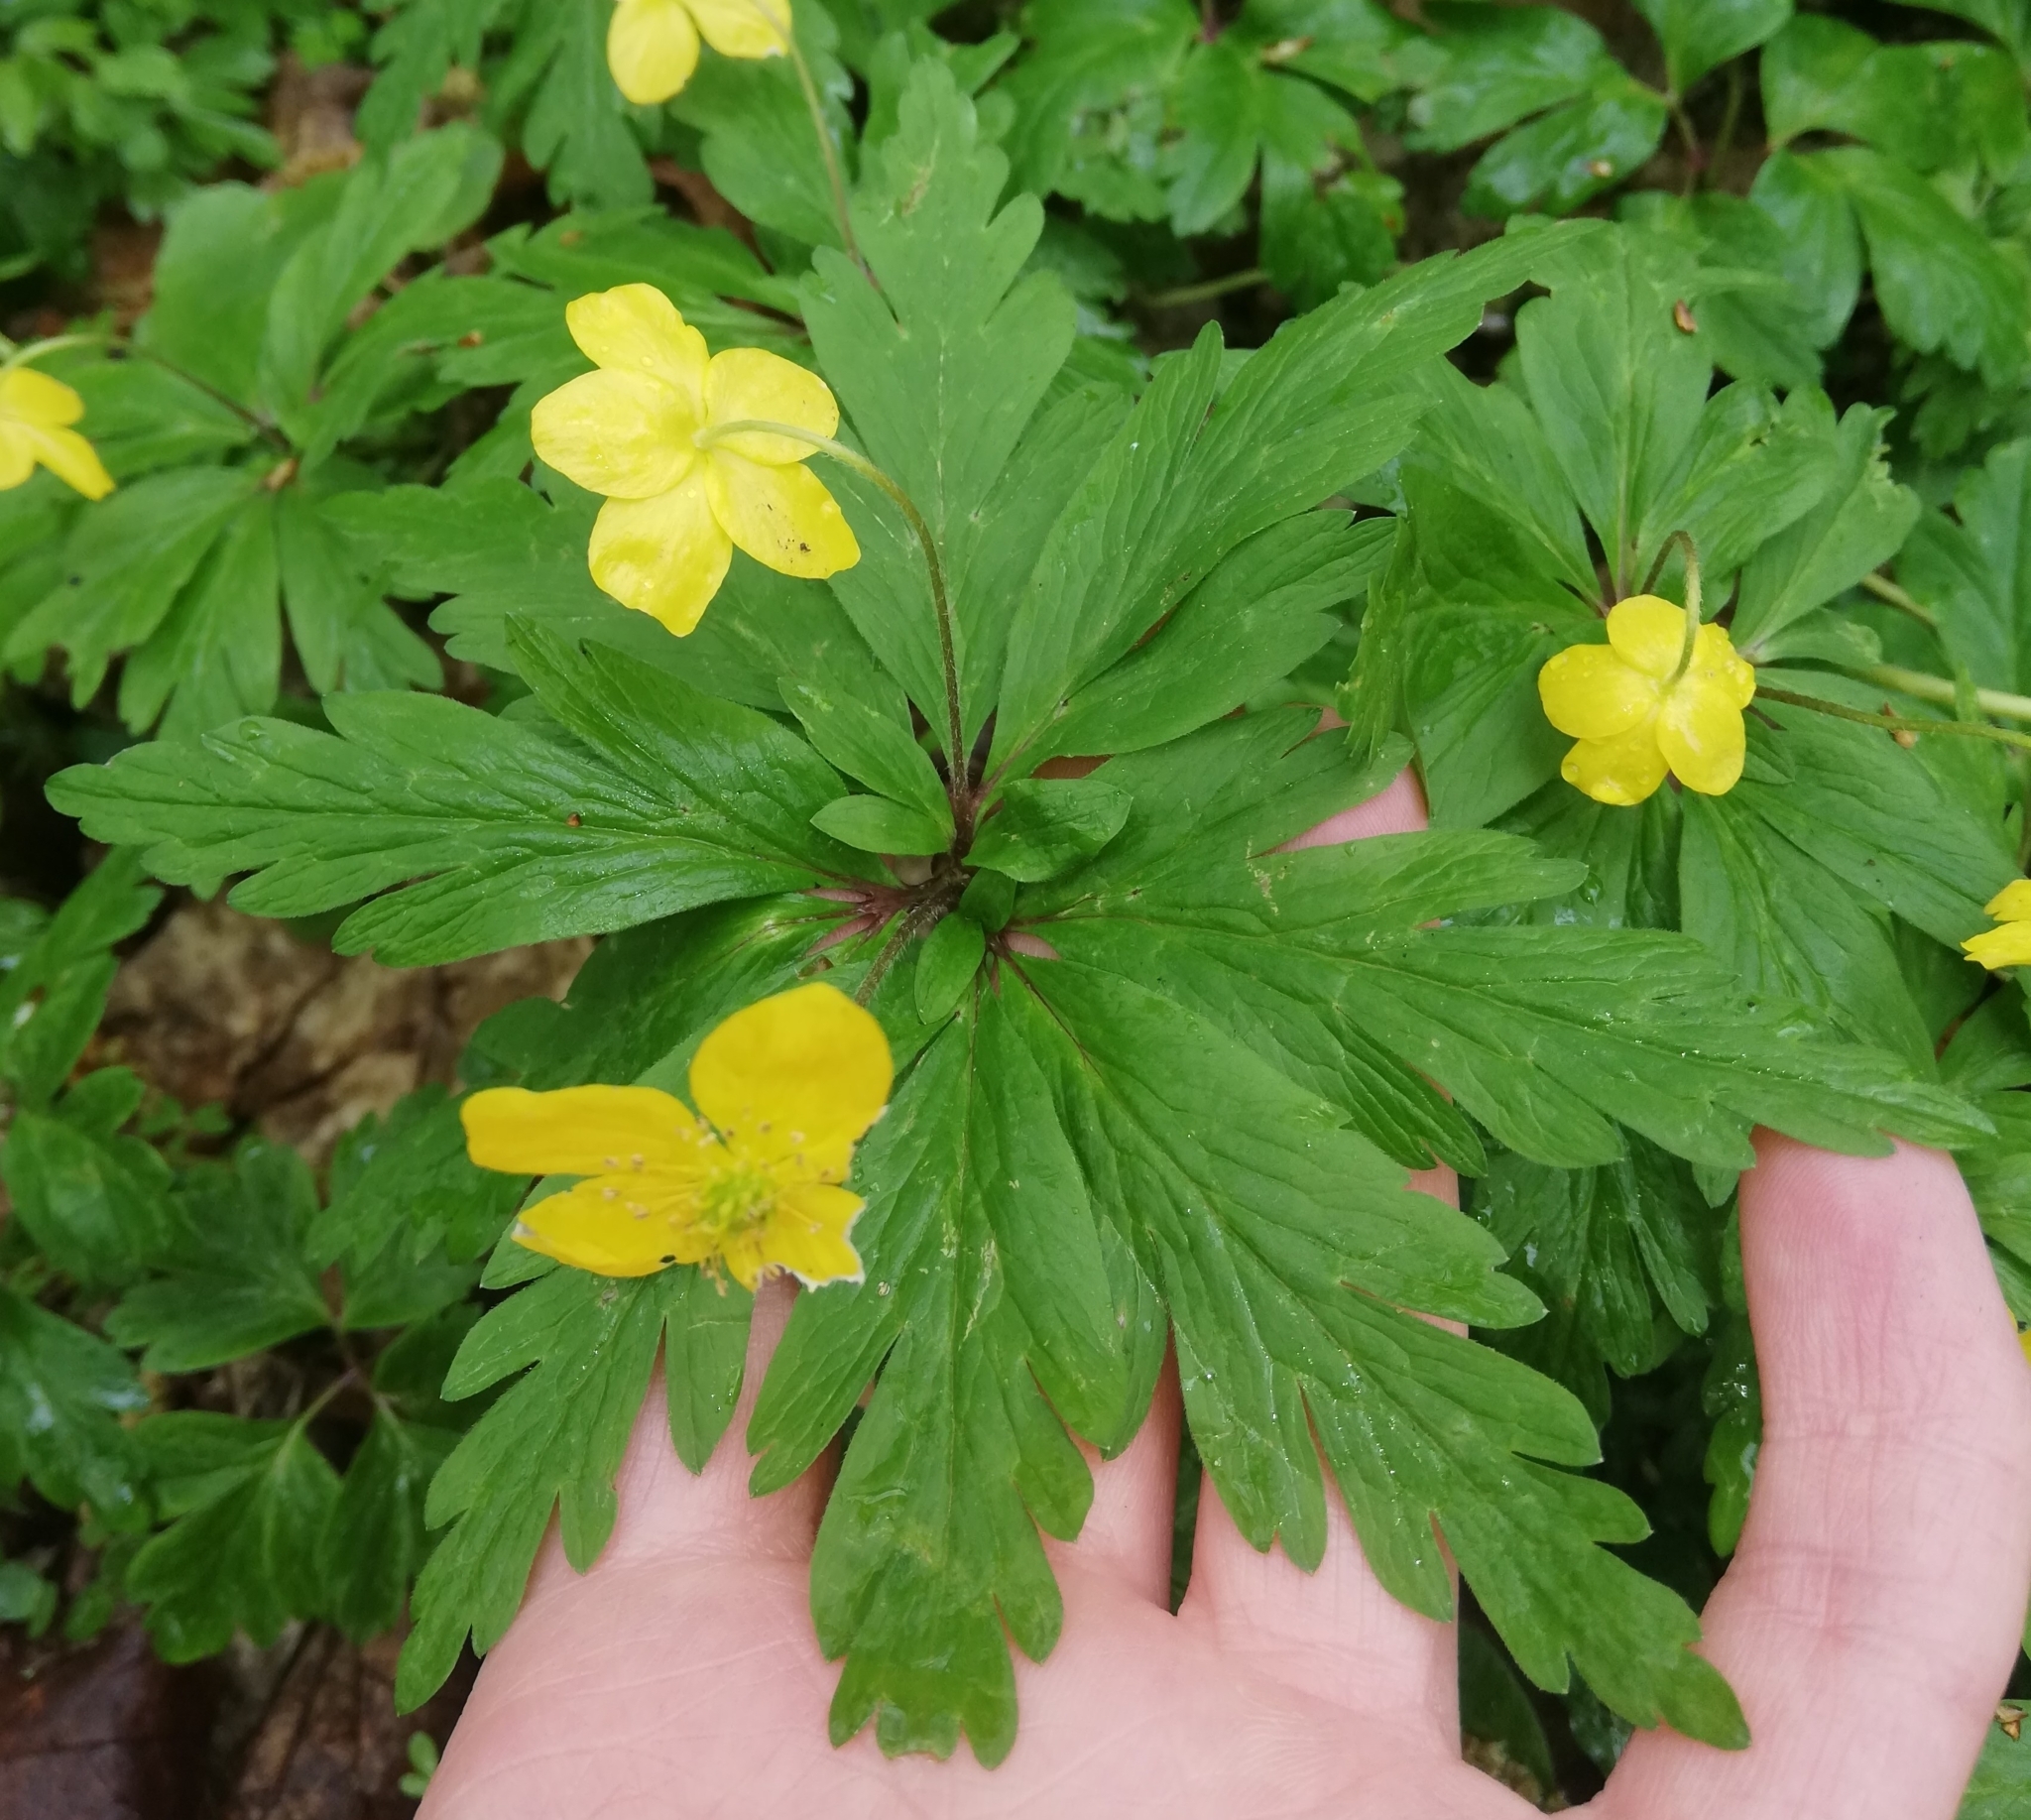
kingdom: Plantae
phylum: Tracheophyta
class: Magnoliopsida
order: Ranunculales
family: Ranunculaceae
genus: Anemone
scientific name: Anemone ranunculoides
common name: Yellow anemone
